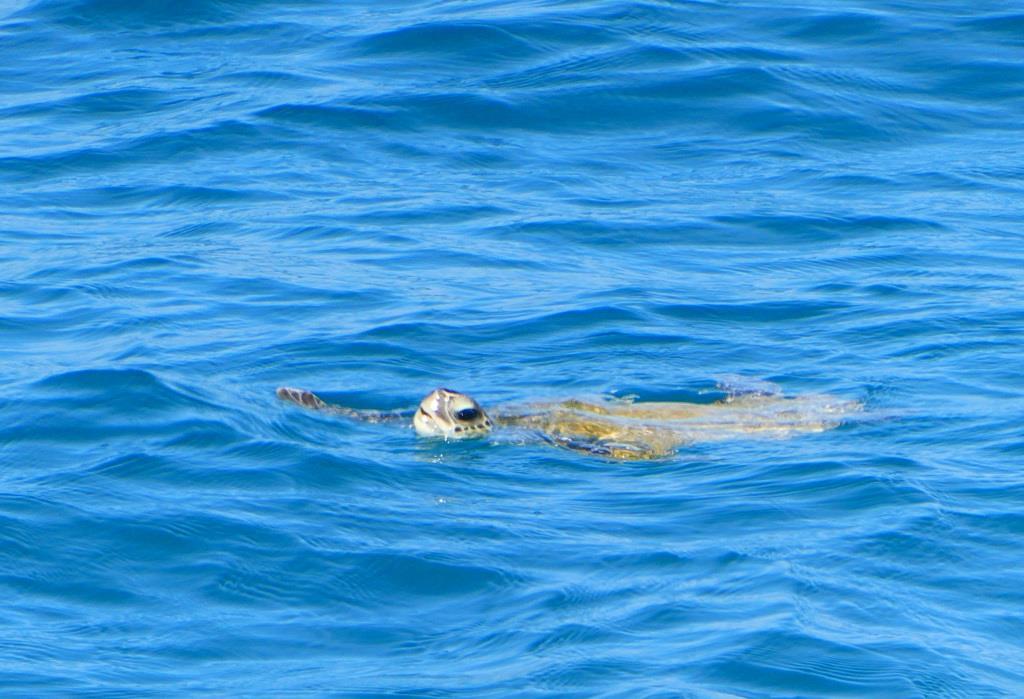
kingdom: Animalia
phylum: Chordata
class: Testudines
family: Cheloniidae
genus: Chelonia
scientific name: Chelonia mydas
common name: Green turtle
